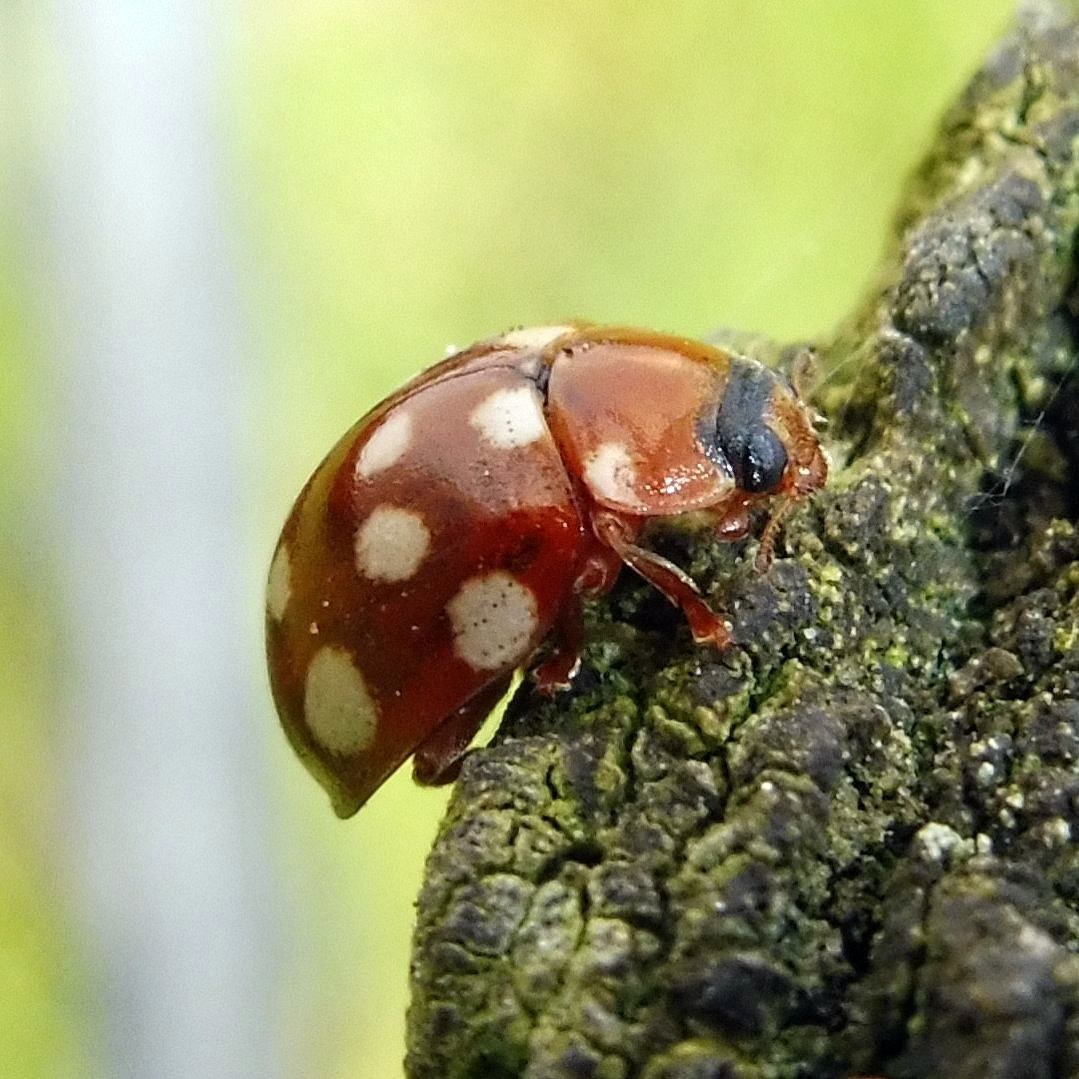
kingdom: Animalia
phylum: Arthropoda
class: Insecta
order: Coleoptera
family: Coccinellidae
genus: Calvia
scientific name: Calvia quatuordecimguttata
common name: Cream-spot ladybird
